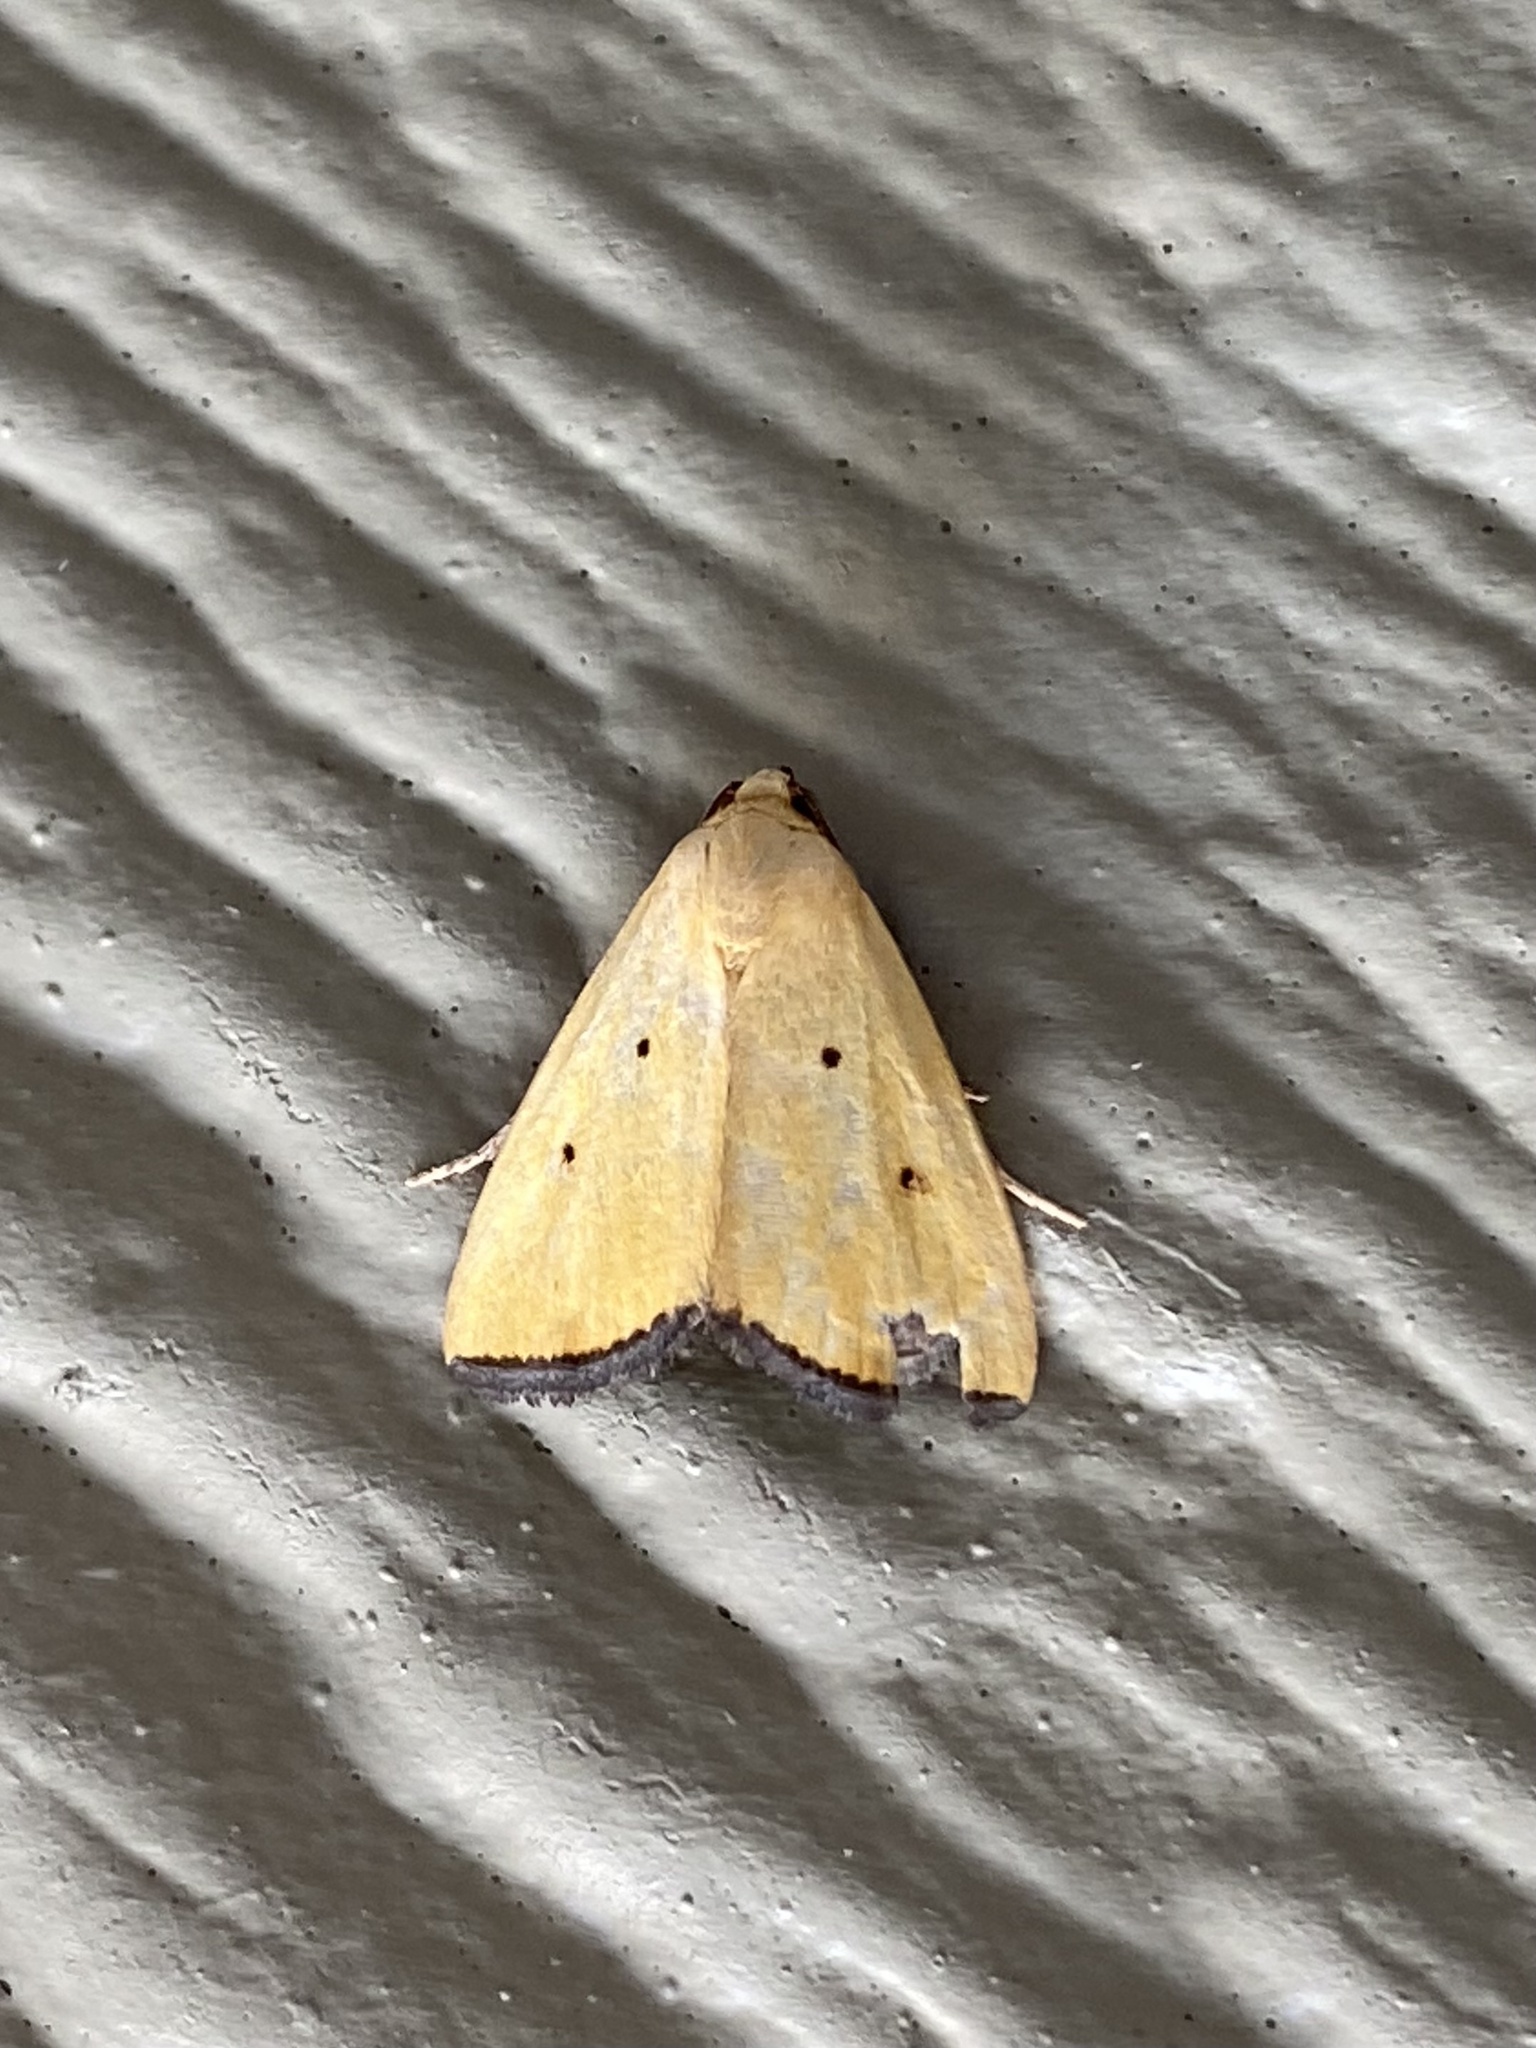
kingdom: Animalia
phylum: Arthropoda
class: Insecta
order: Lepidoptera
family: Noctuidae
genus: Marimatha
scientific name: Marimatha nigrofimbria
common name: Black-bordered lemon moth
